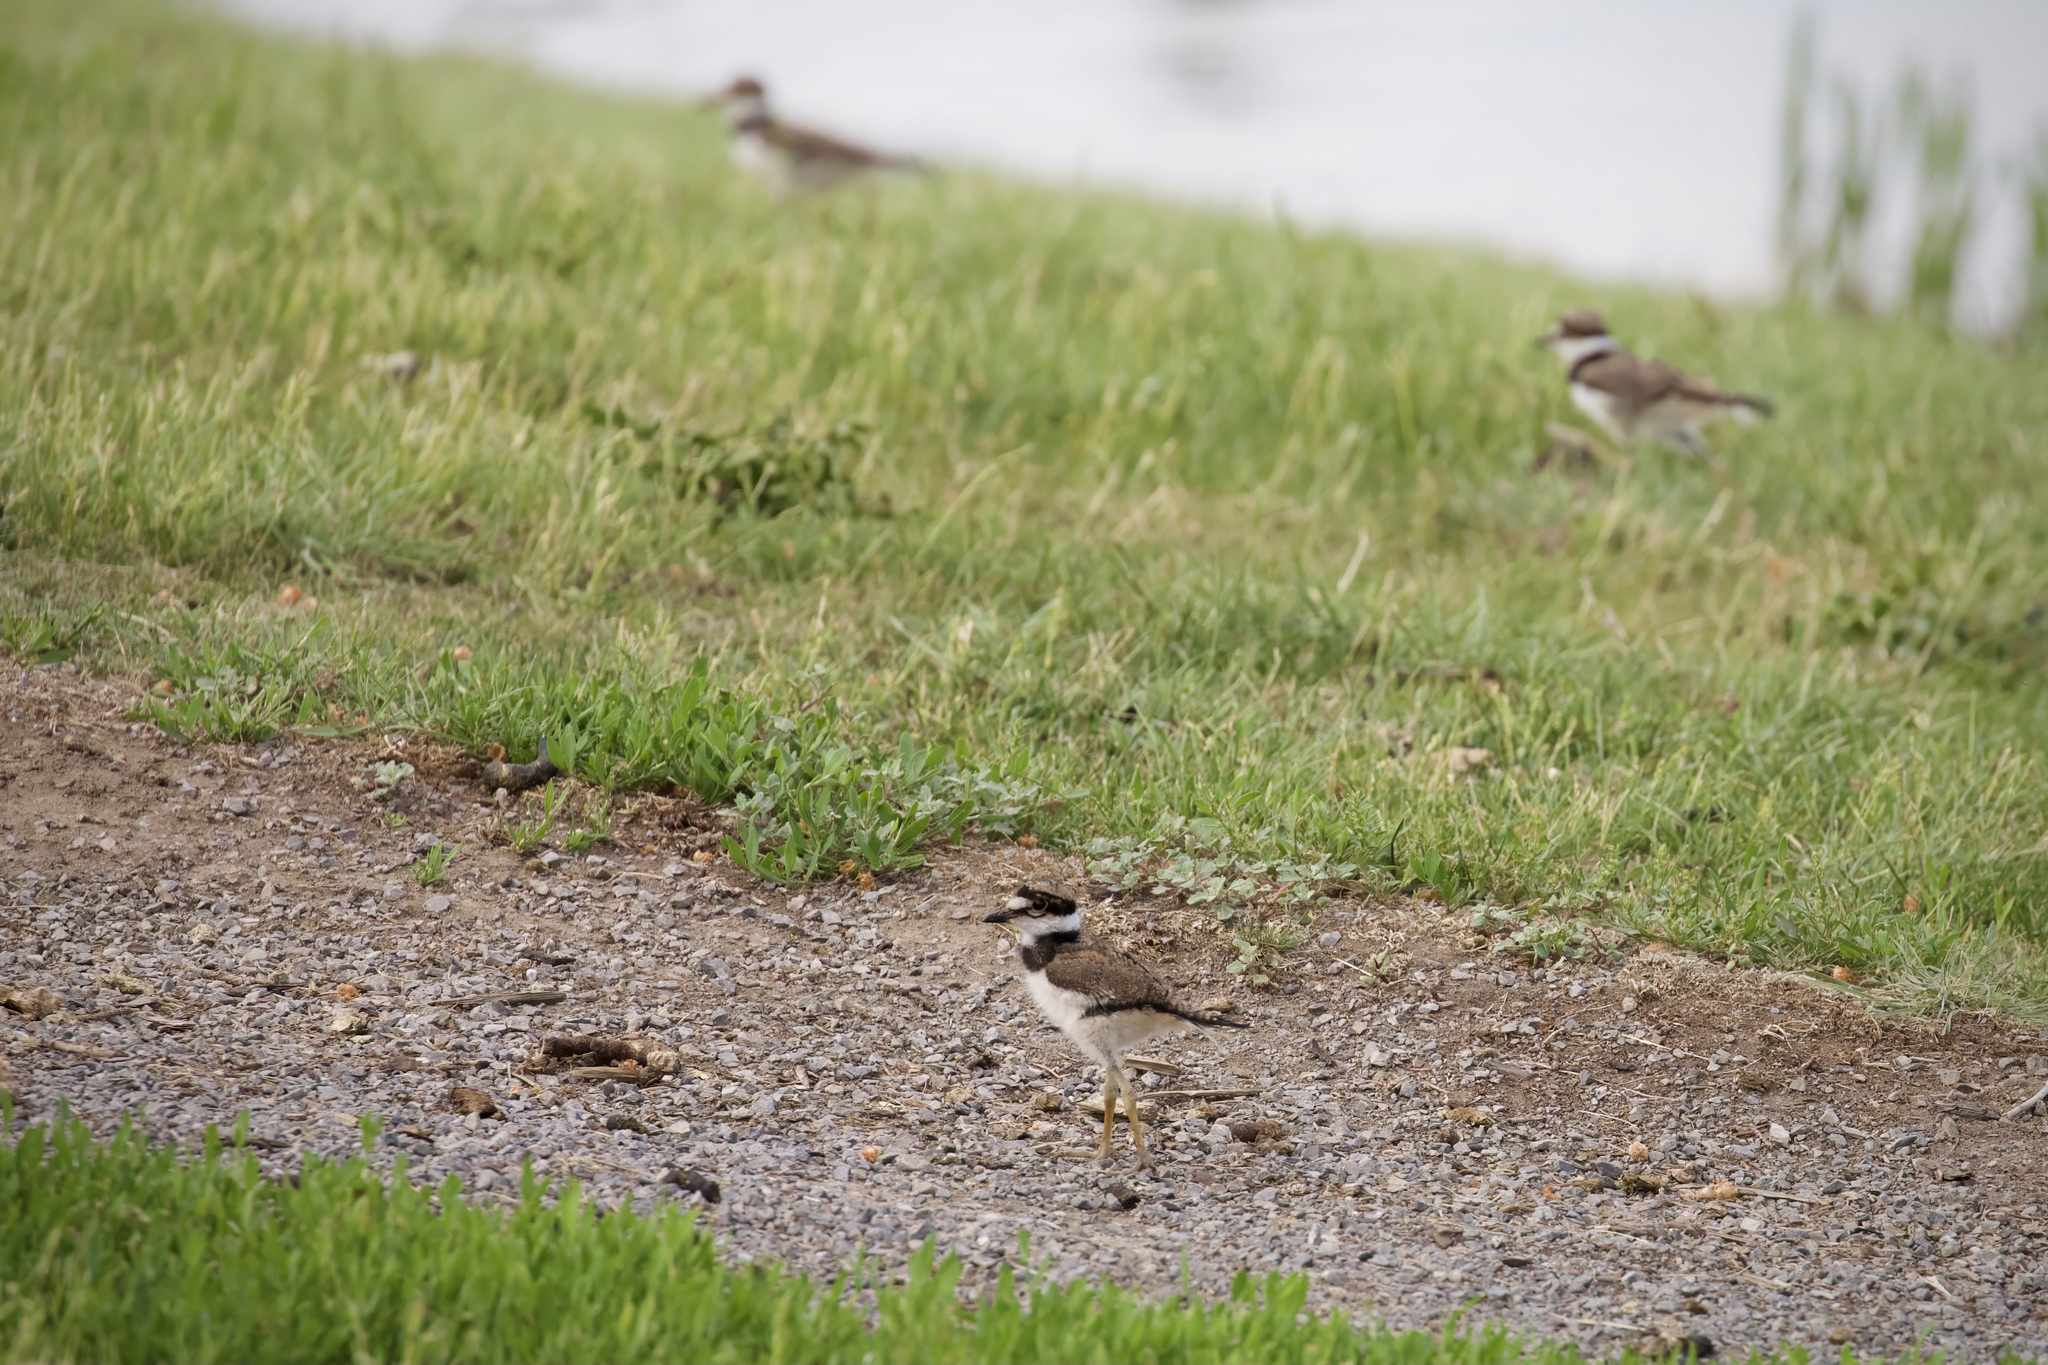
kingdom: Animalia
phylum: Chordata
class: Aves
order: Charadriiformes
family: Charadriidae
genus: Charadrius
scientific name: Charadrius vociferus
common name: Killdeer
